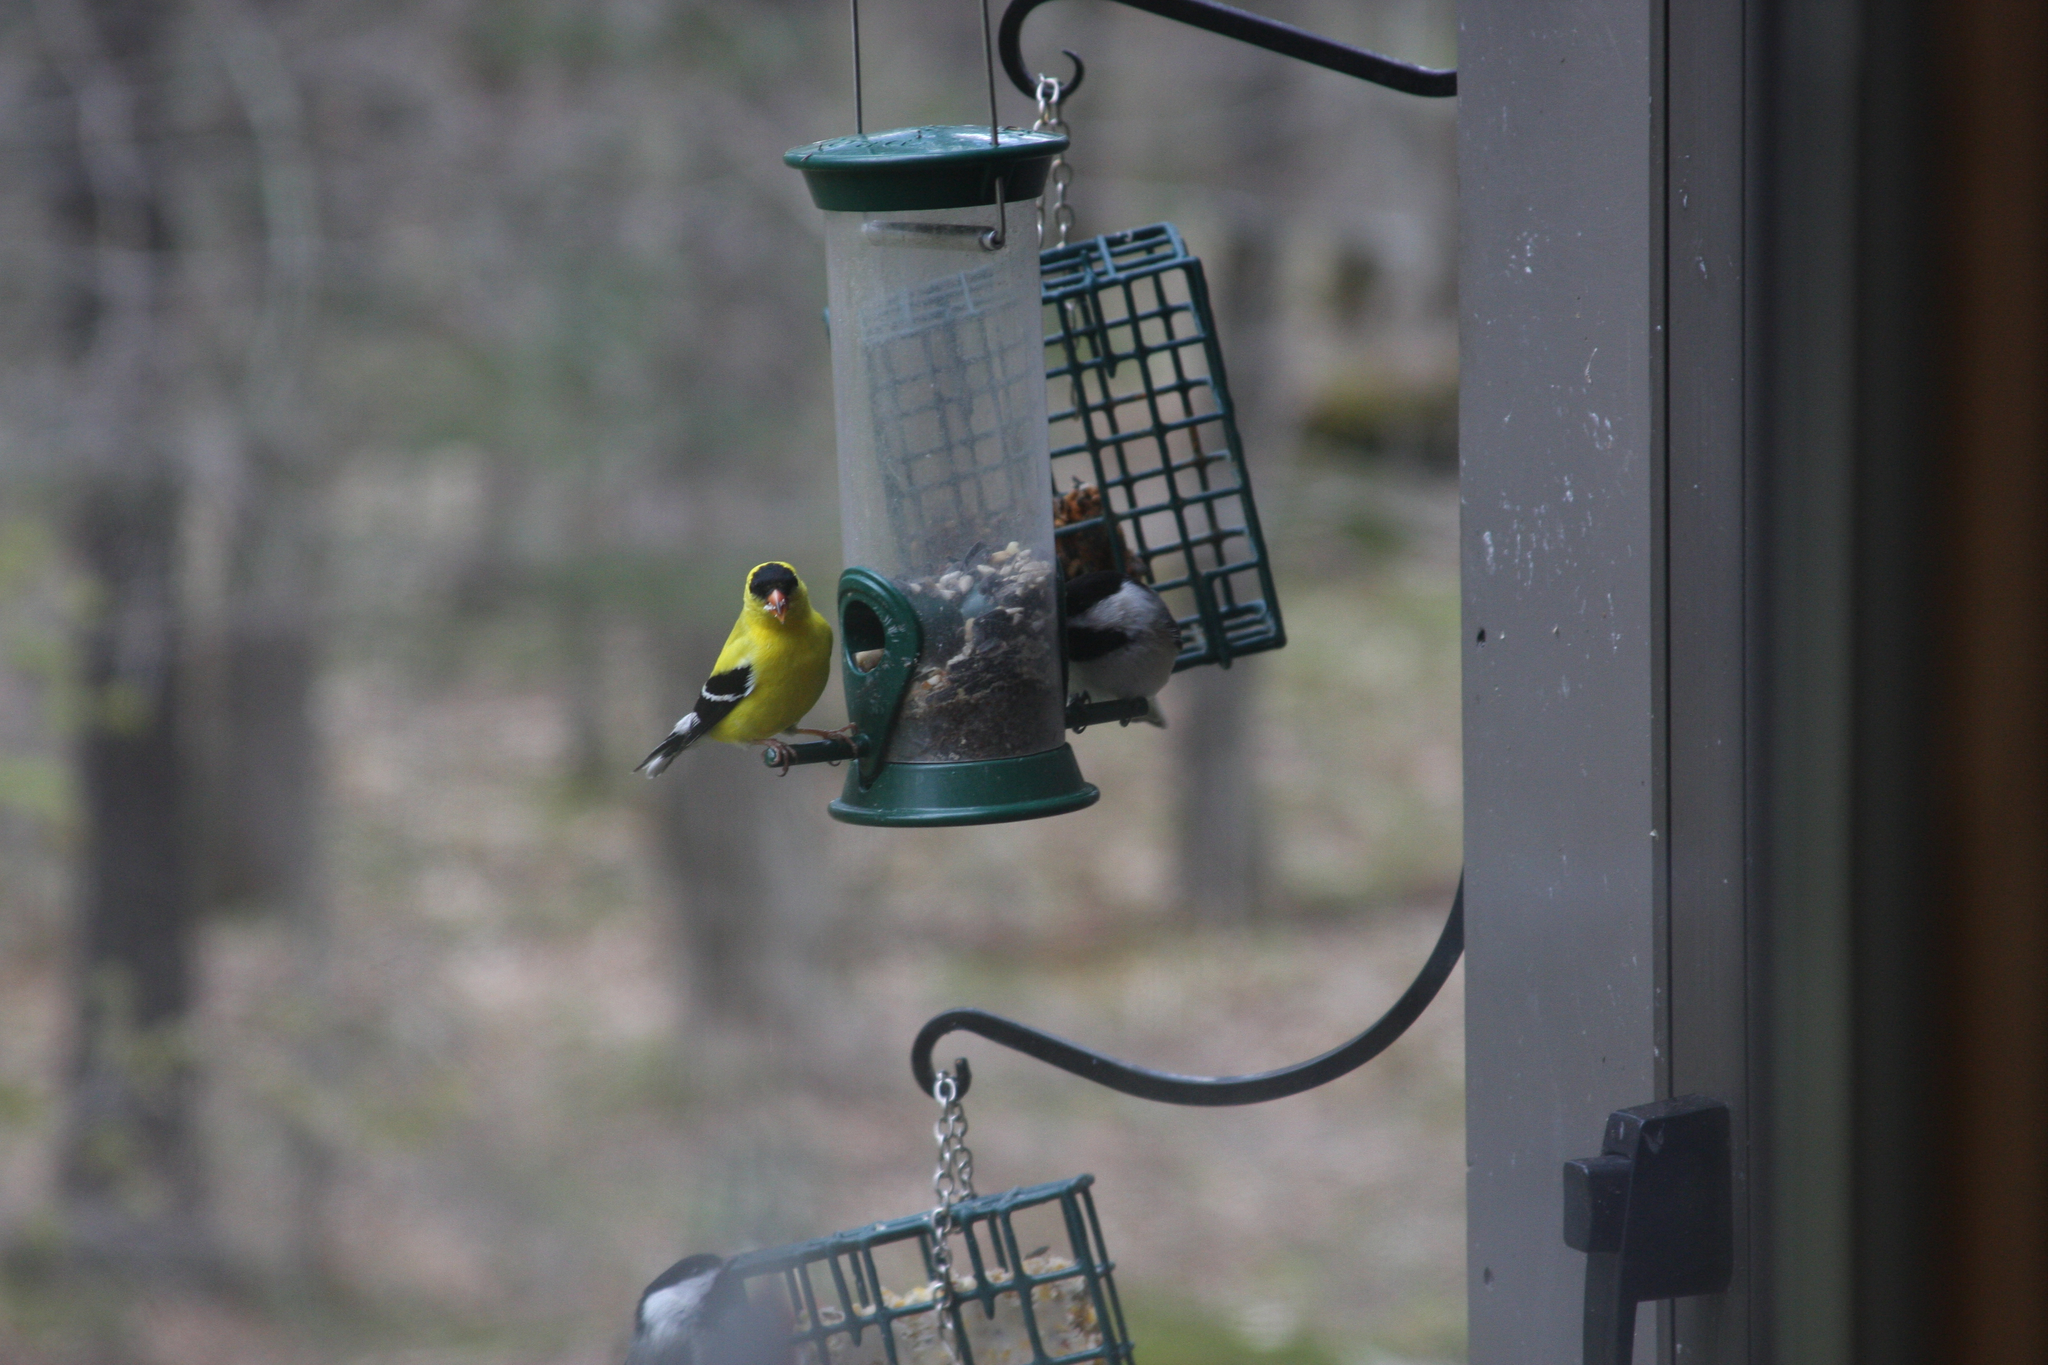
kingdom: Animalia
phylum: Chordata
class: Aves
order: Passeriformes
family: Paridae
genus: Poecile
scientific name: Poecile atricapillus
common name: Black-capped chickadee
